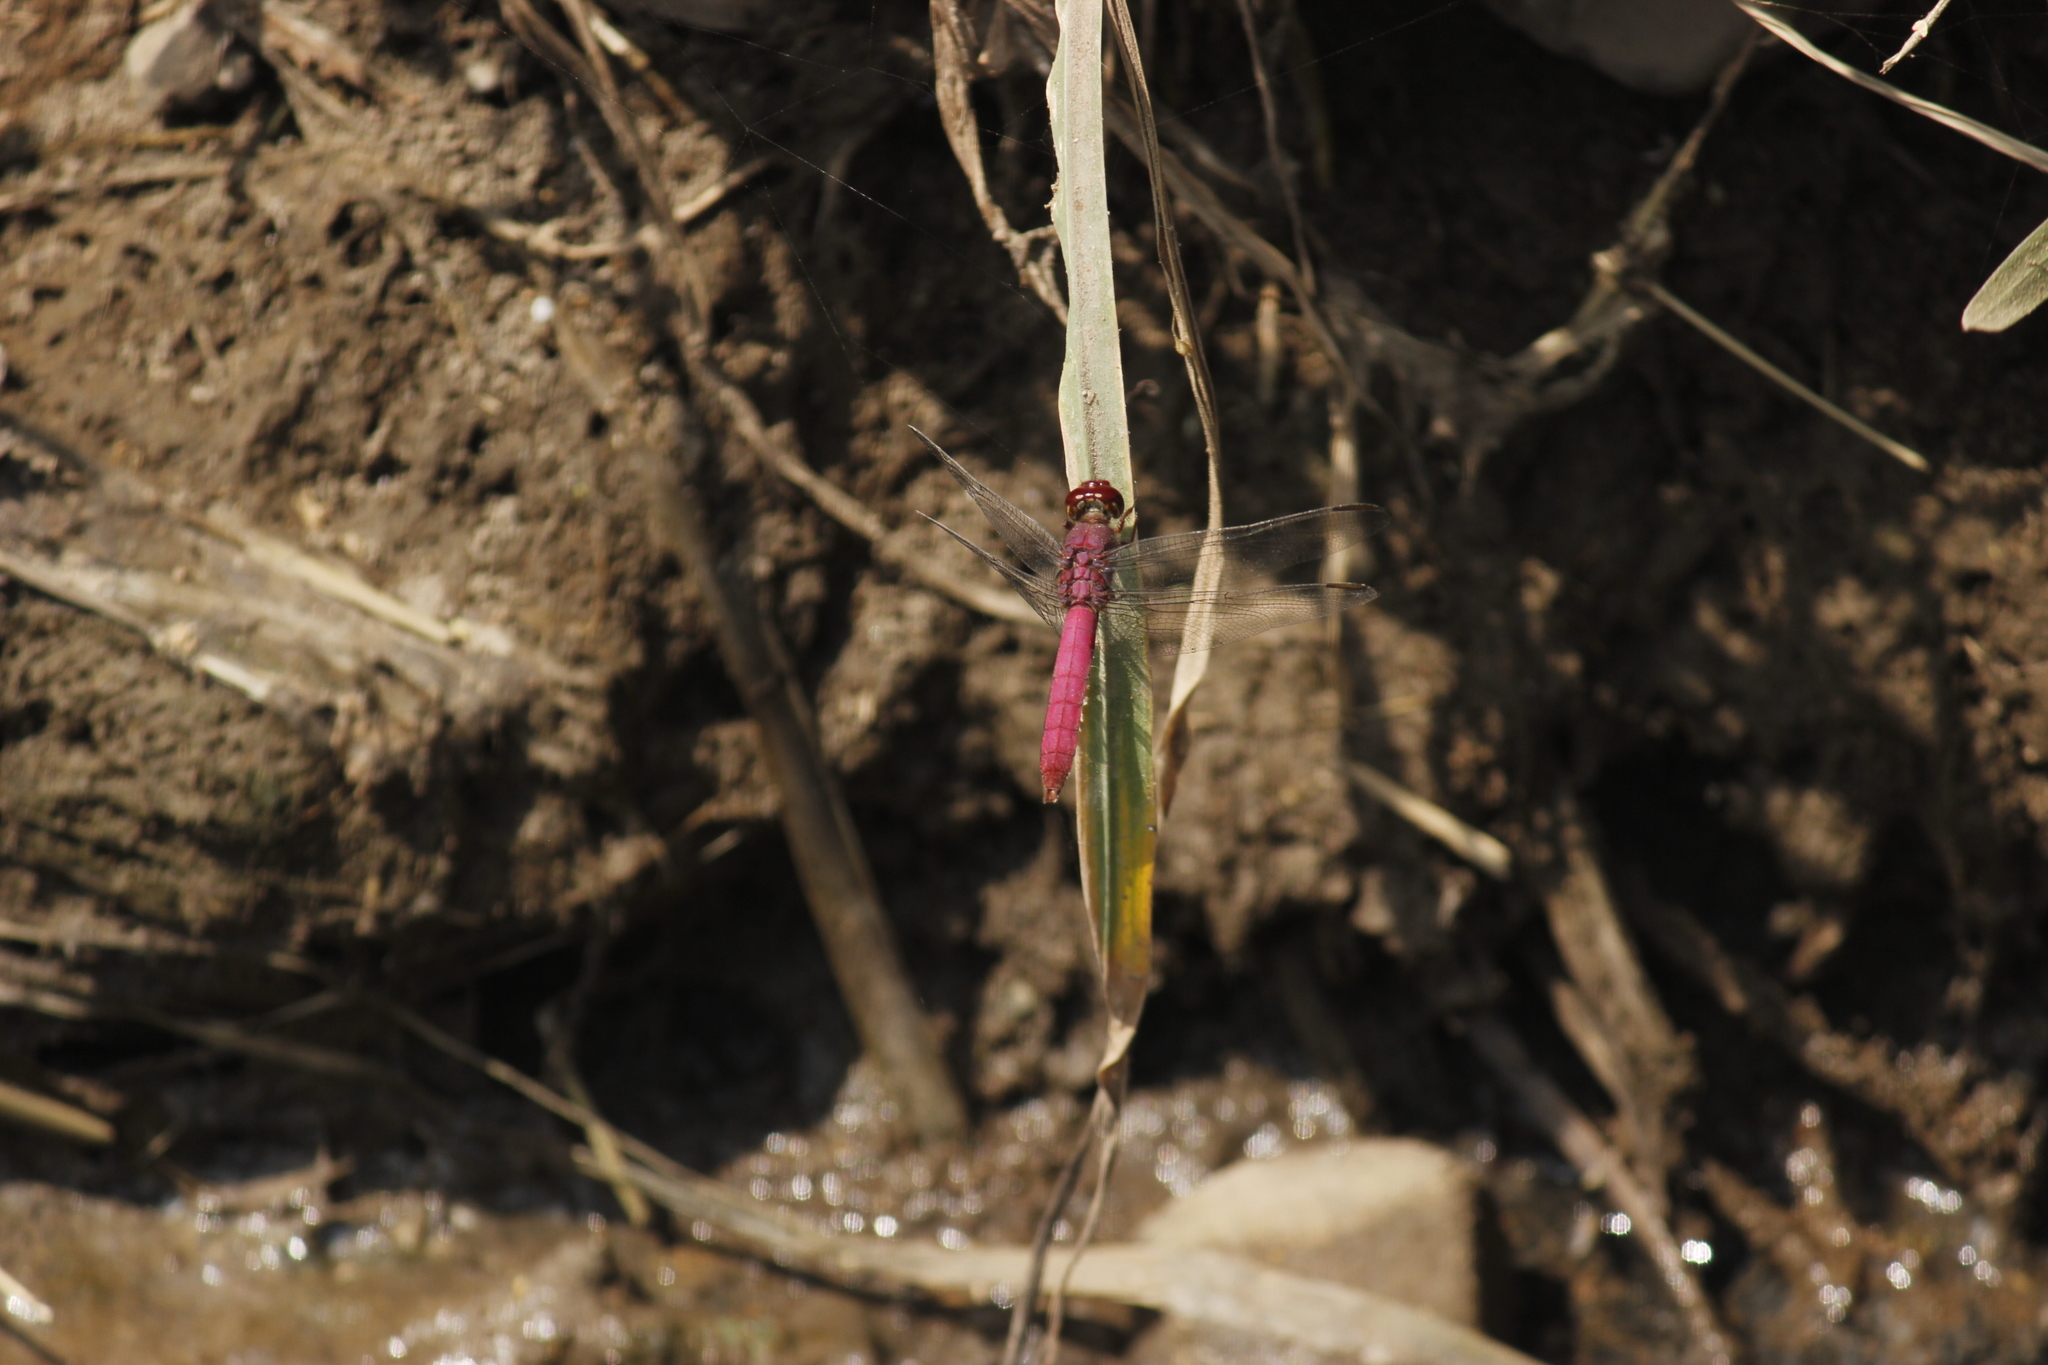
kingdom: Animalia
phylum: Arthropoda
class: Insecta
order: Odonata
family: Libellulidae
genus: Orthemis
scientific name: Orthemis discolor
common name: Carmine skimmer
